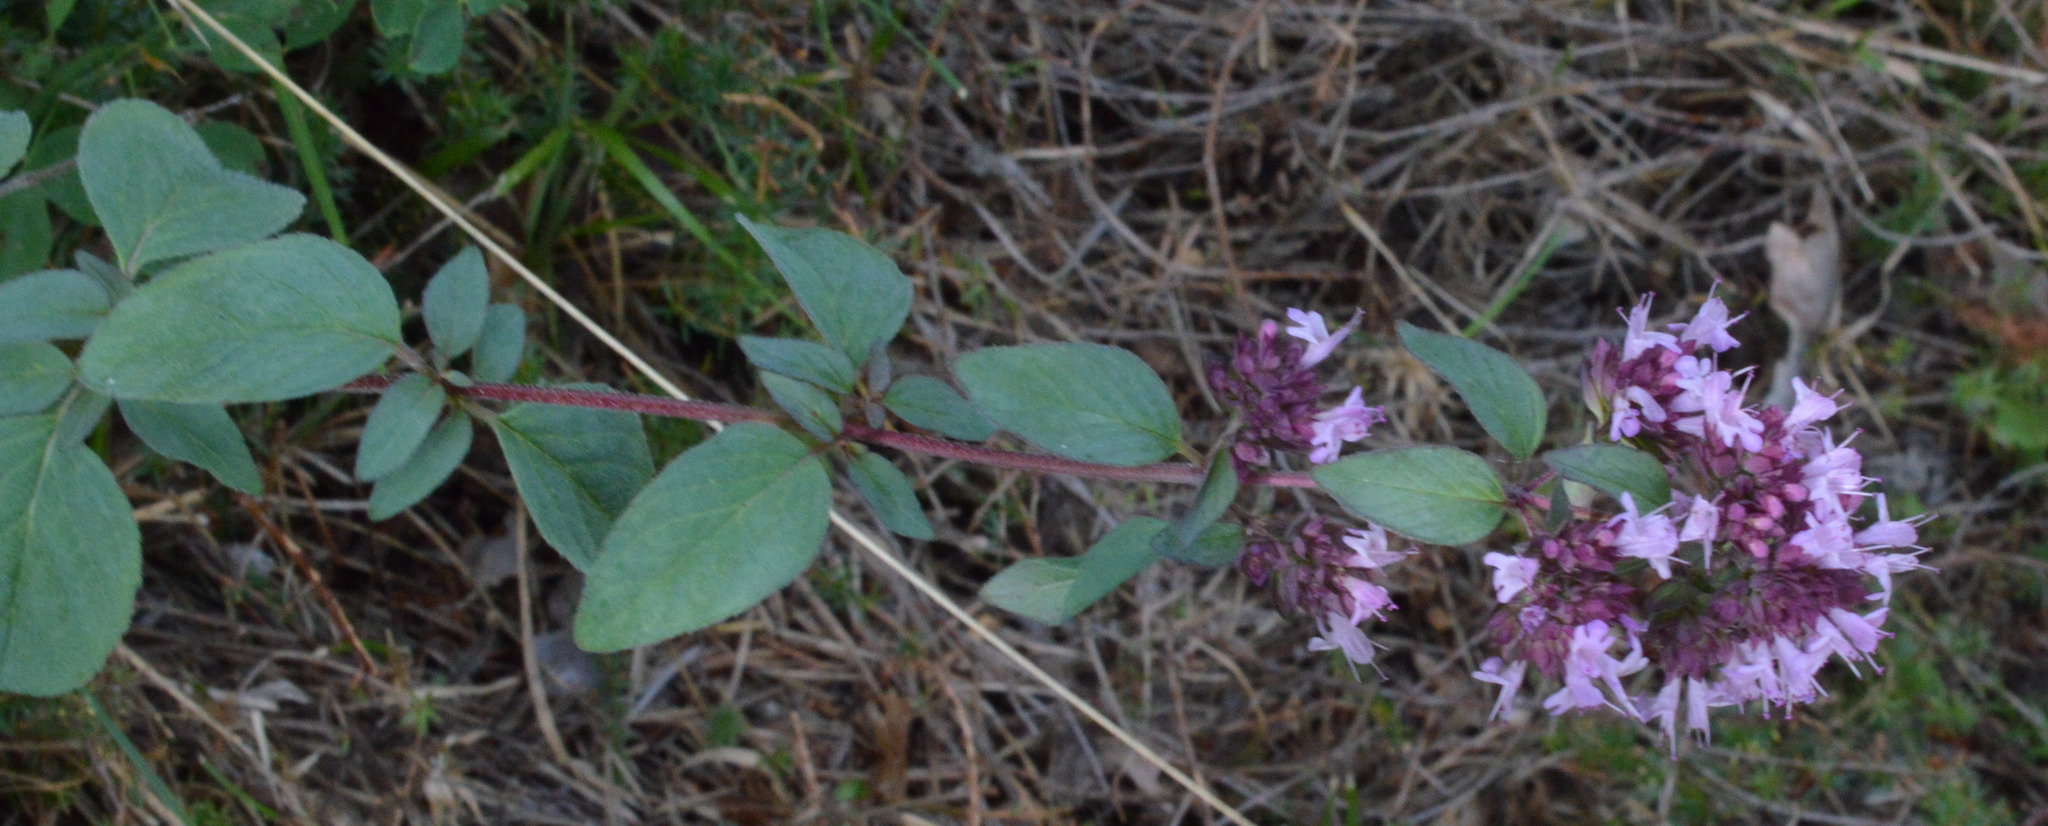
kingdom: Plantae
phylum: Tracheophyta
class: Magnoliopsida
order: Lamiales
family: Lamiaceae
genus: Origanum
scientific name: Origanum vulgare
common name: Wild marjoram
